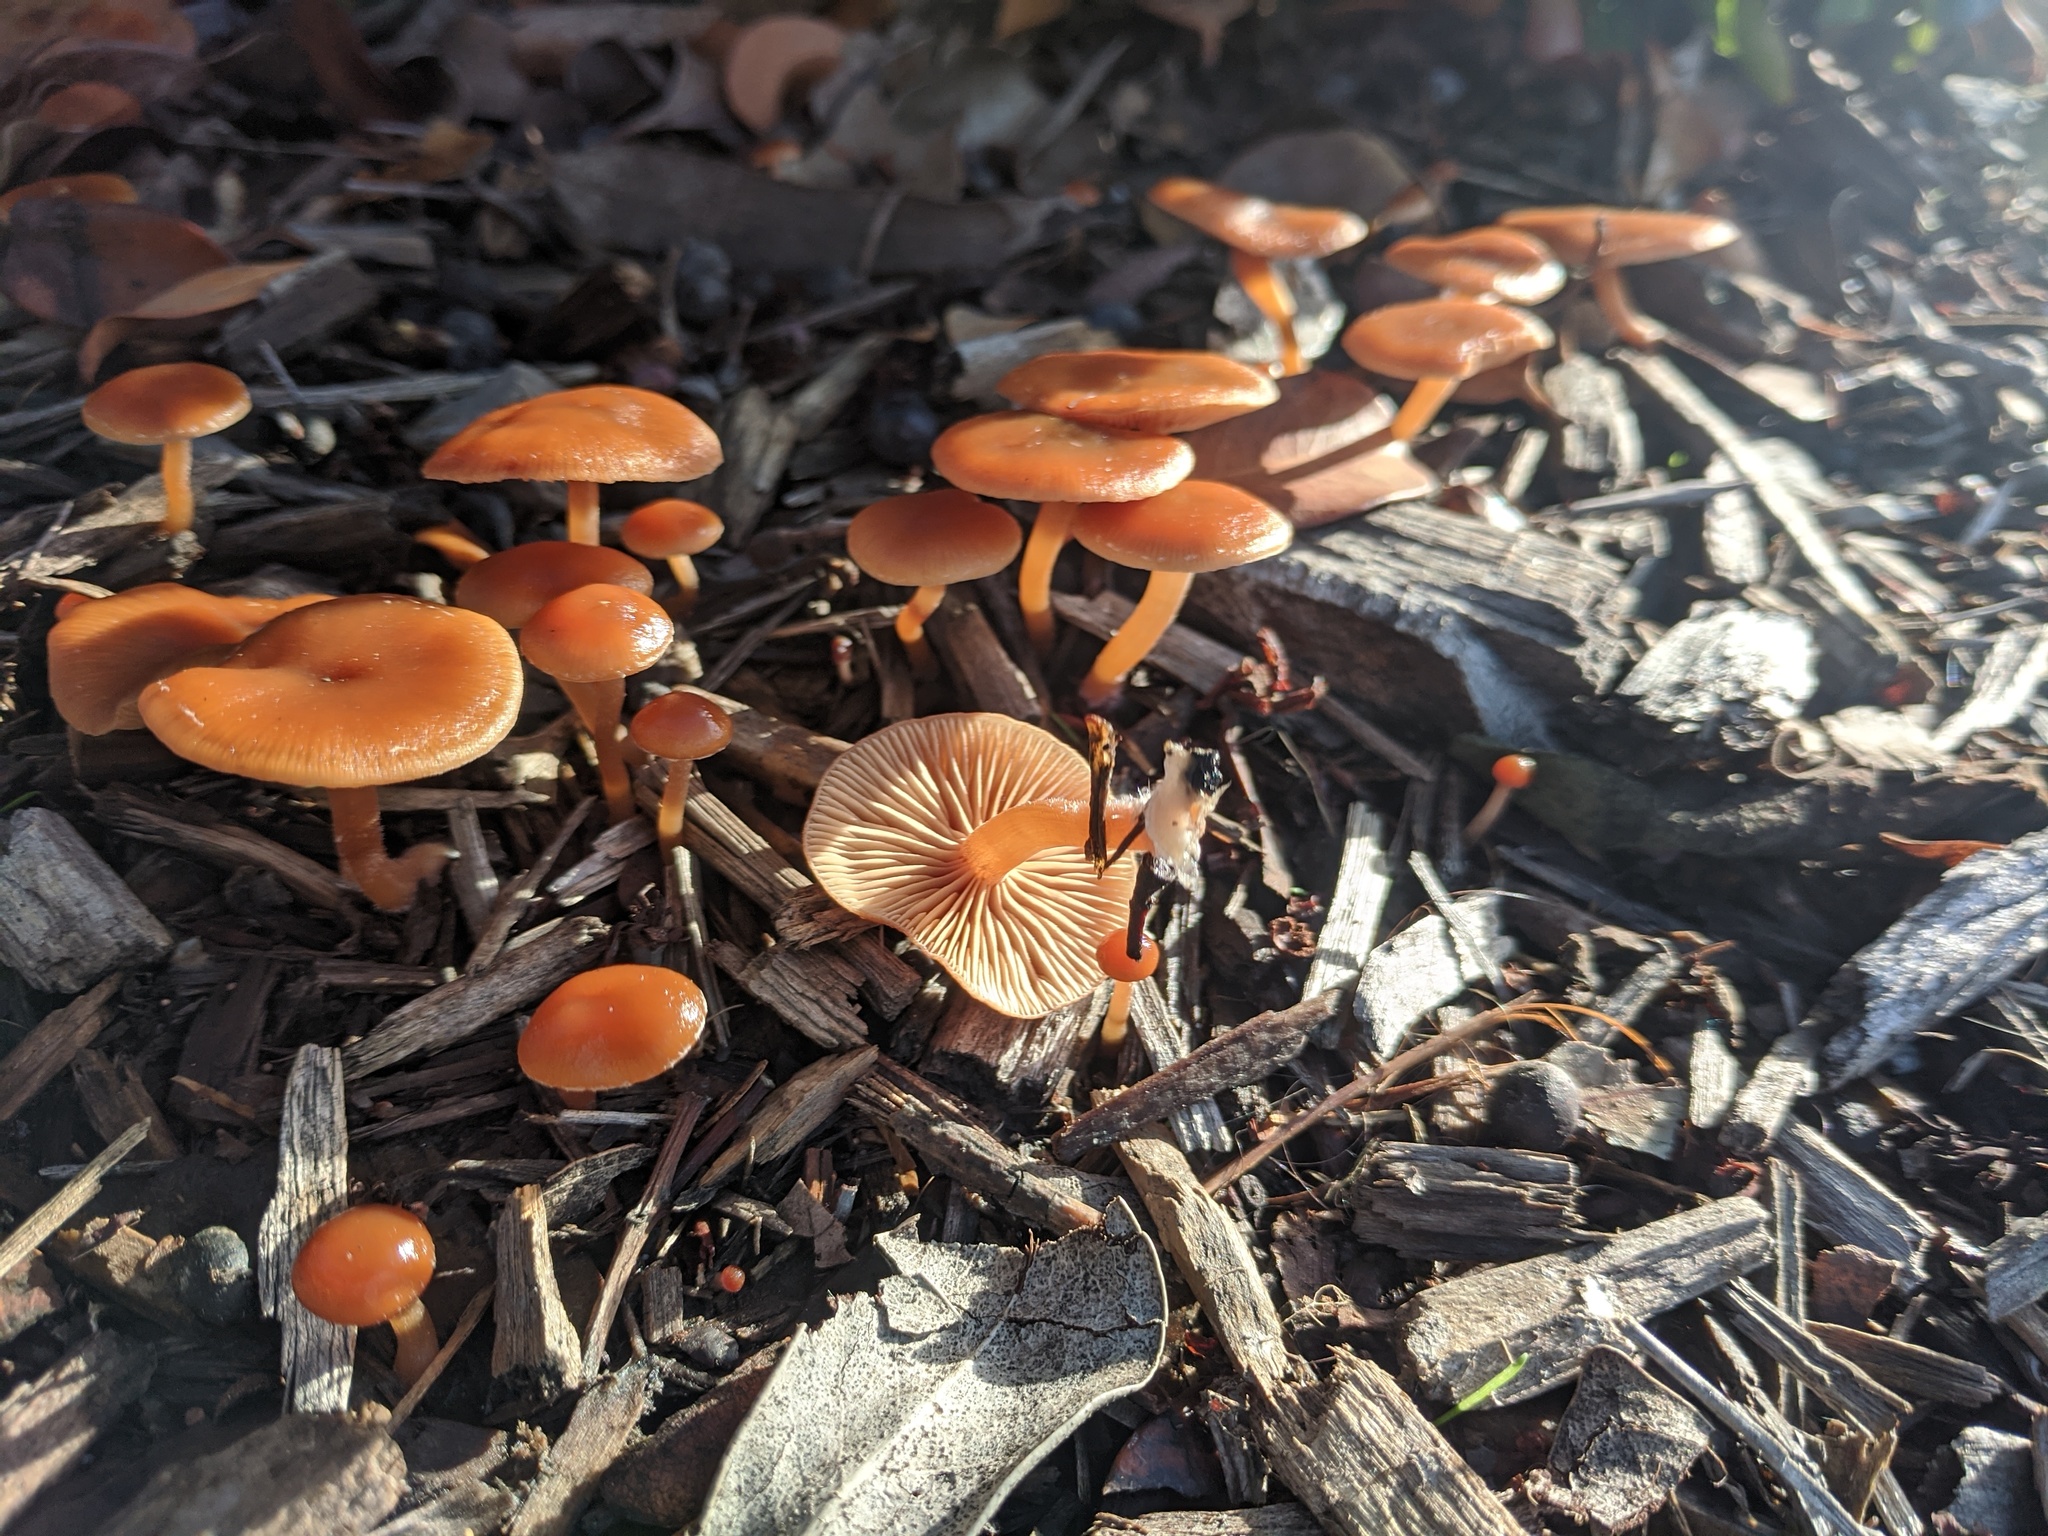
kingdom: Fungi
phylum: Basidiomycota
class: Agaricomycetes
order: Agaricales
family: Tubariaceae
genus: Tubaria
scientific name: Tubaria furfuracea
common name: Scurfy twiglet
